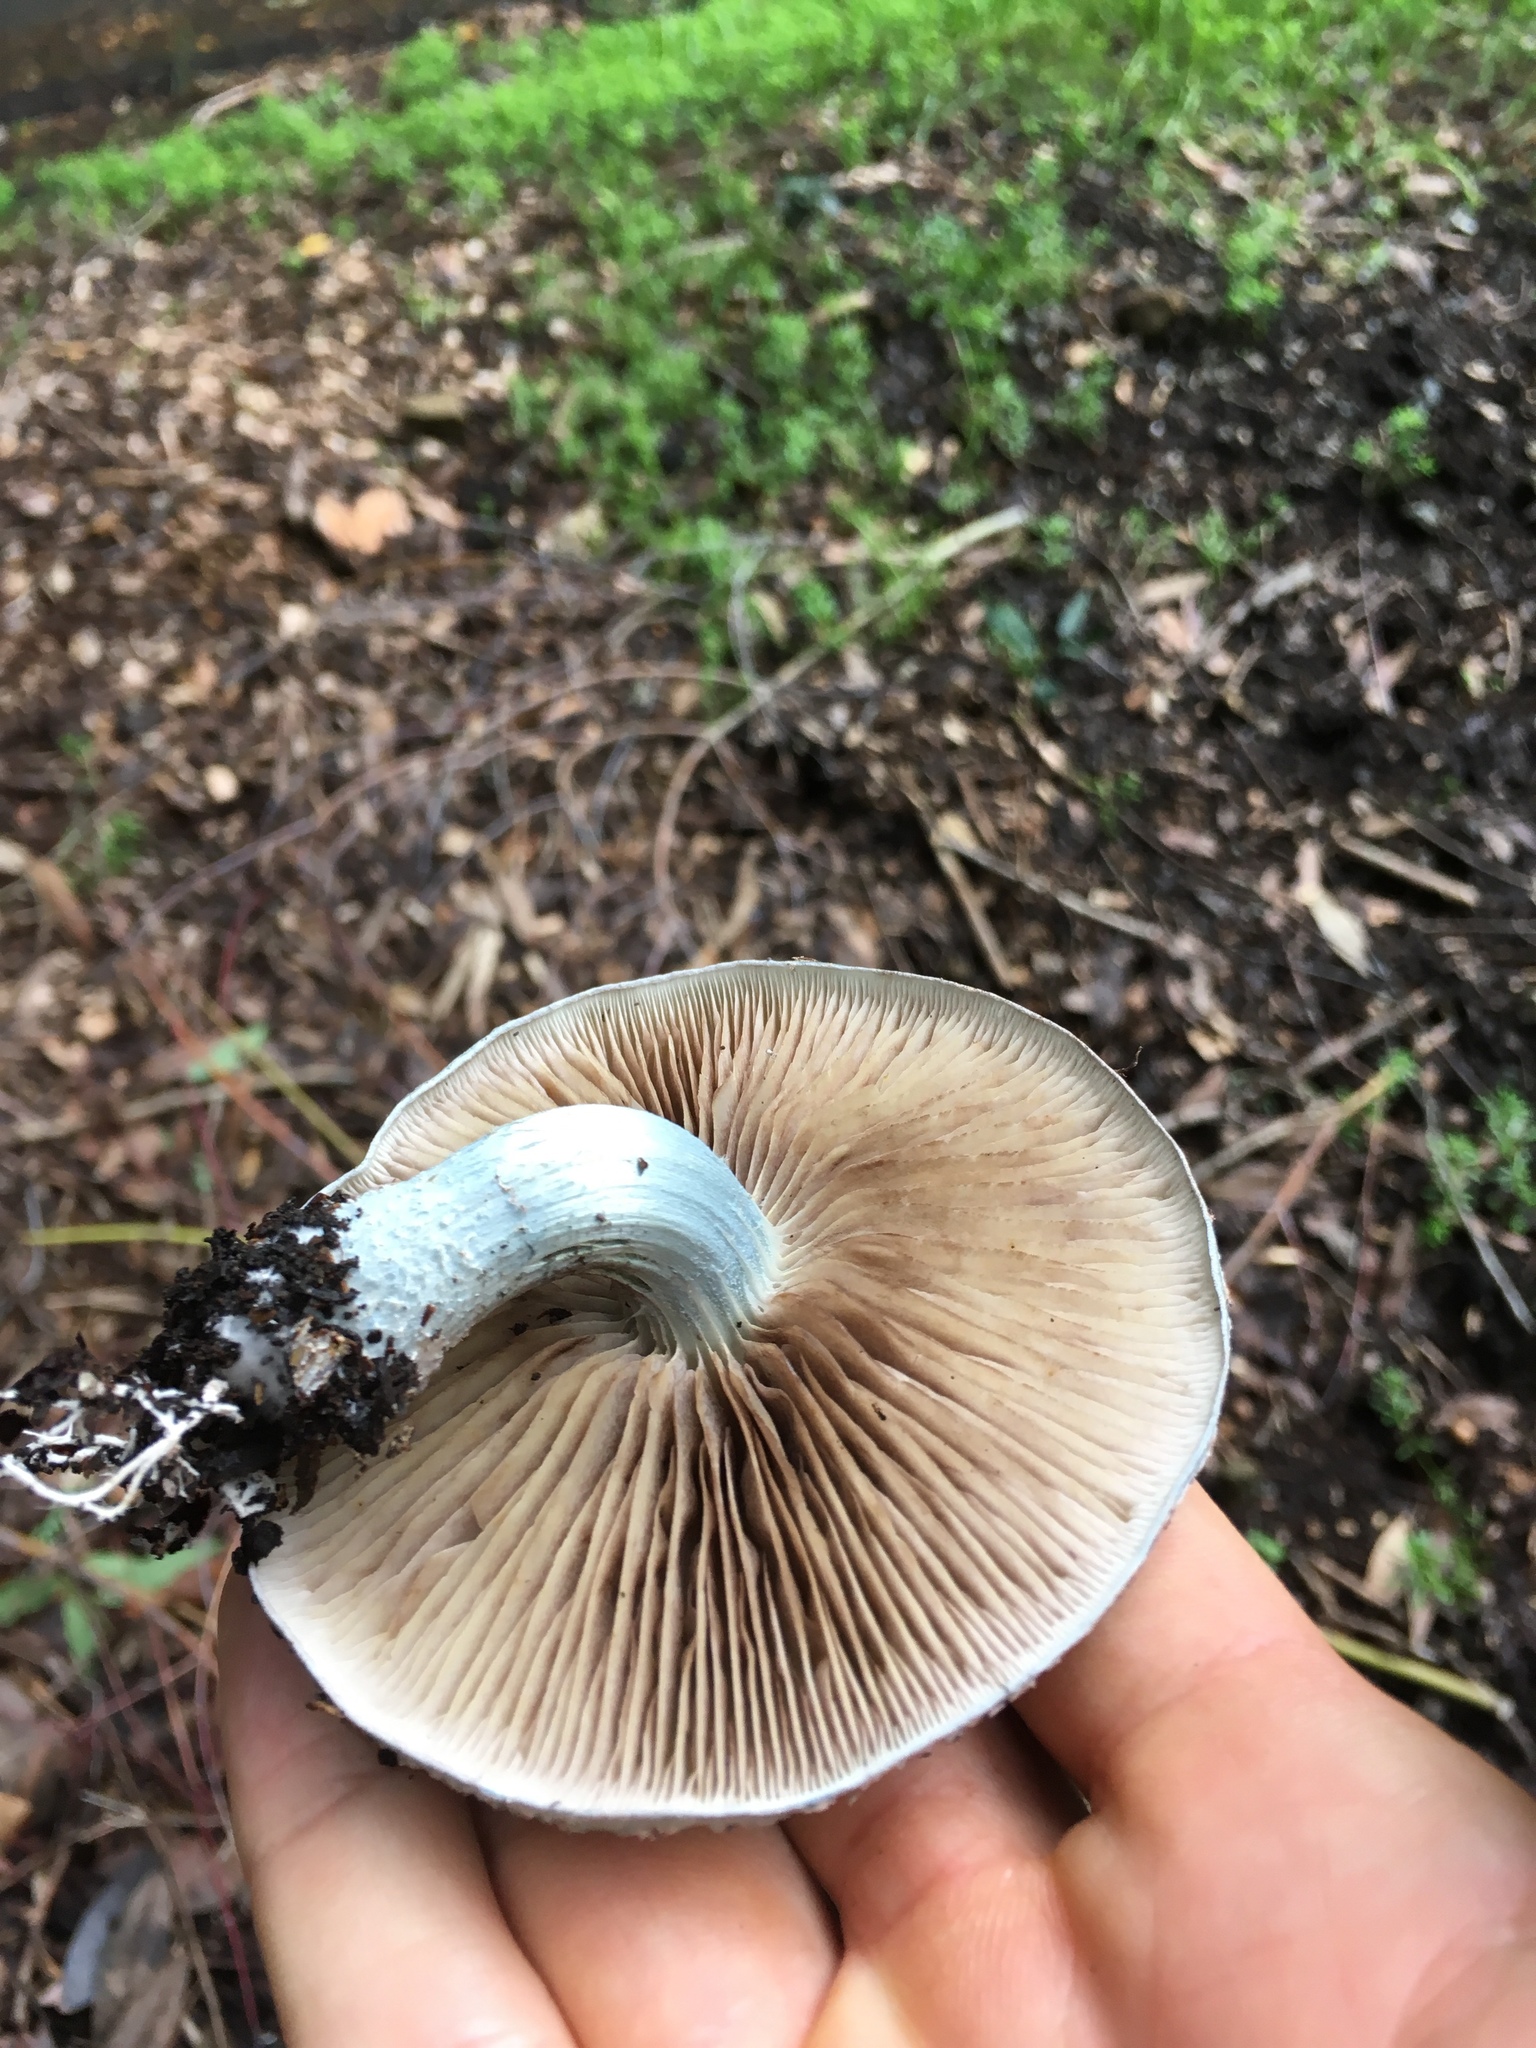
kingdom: Fungi
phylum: Basidiomycota
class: Agaricomycetes
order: Agaricales
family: Strophariaceae
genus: Stropharia
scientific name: Stropharia caerulea
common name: Blue roundhead
